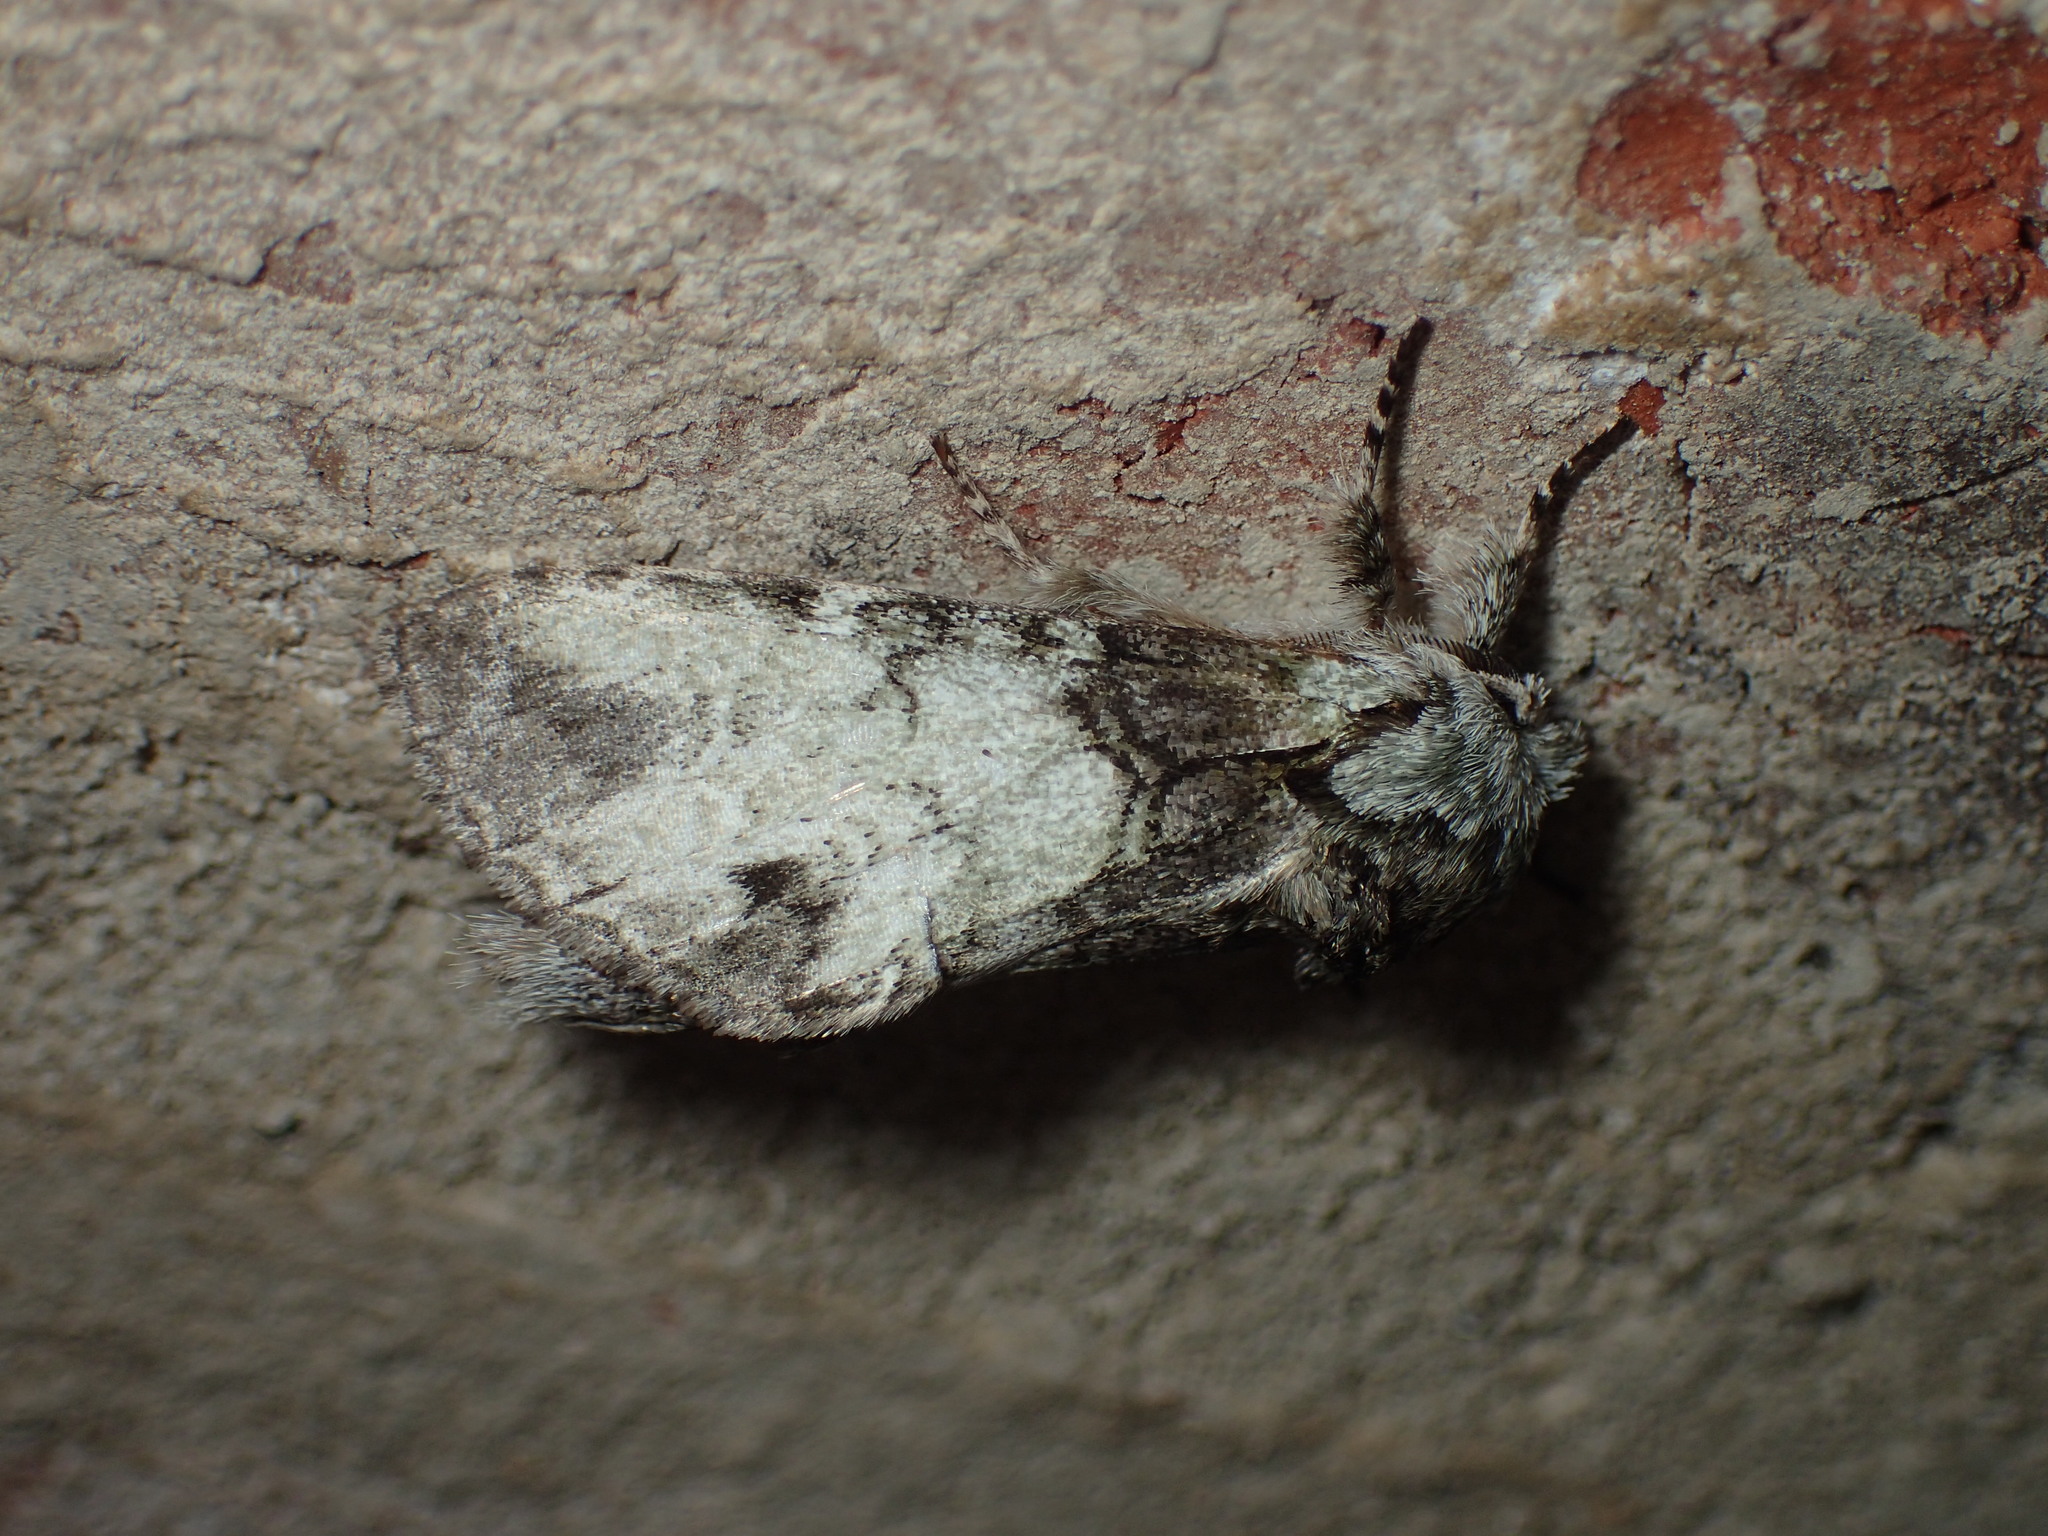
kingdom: Animalia
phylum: Arthropoda
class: Insecta
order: Lepidoptera
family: Notodontidae
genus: Macrurocampa
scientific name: Macrurocampa marthesia
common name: Mottled prominent
